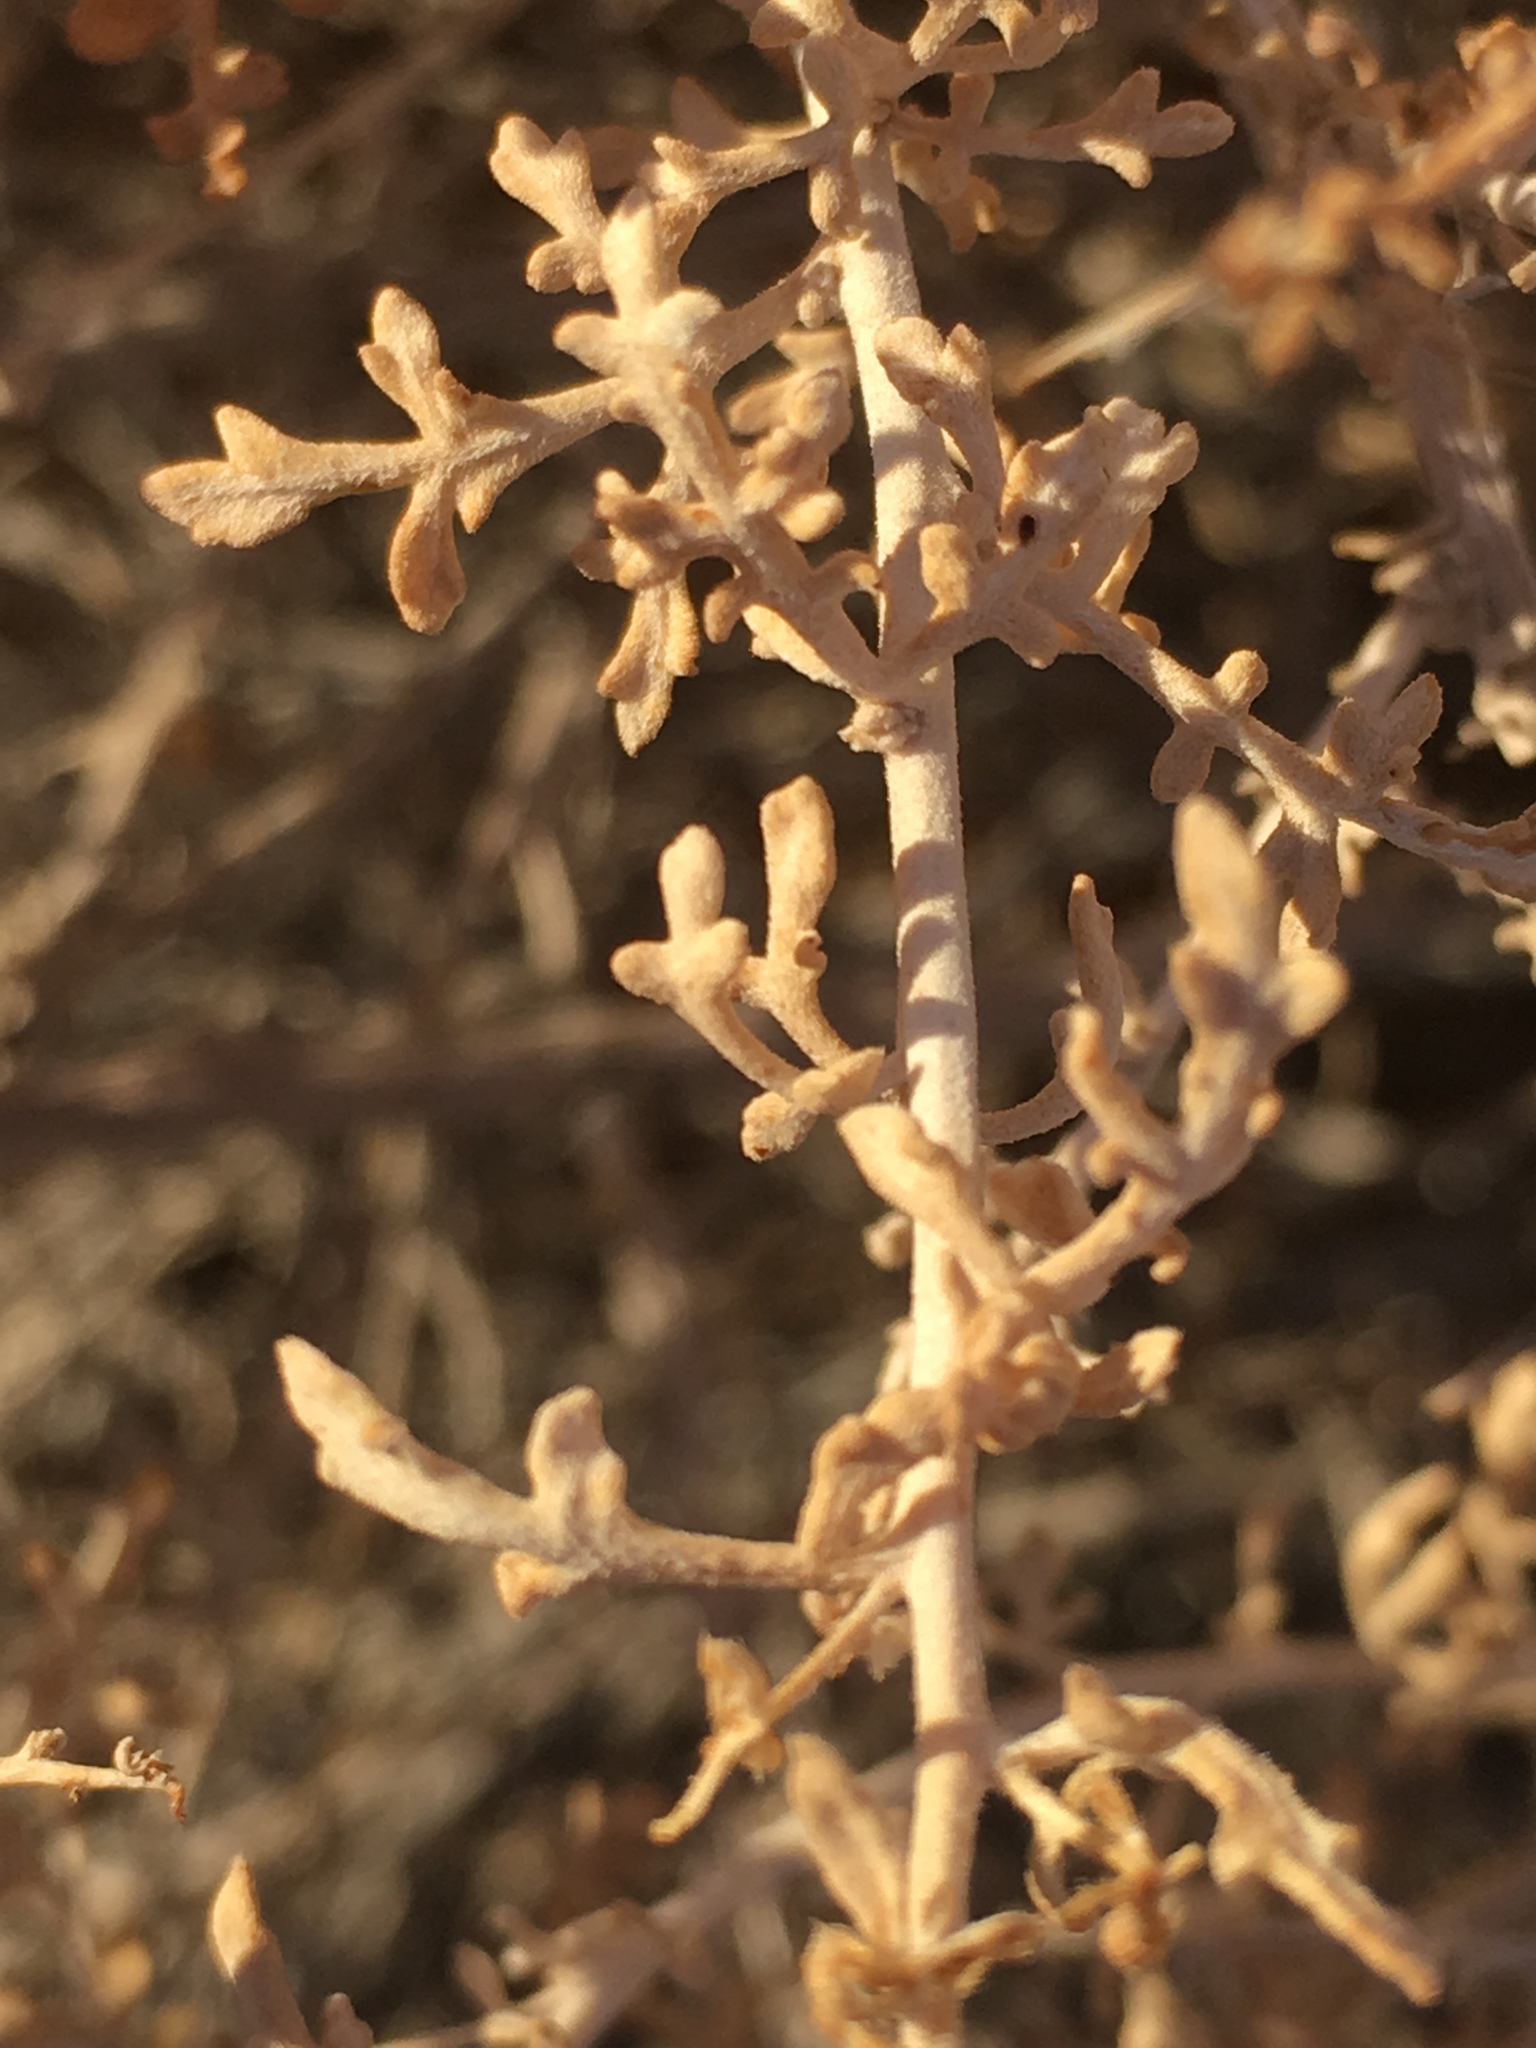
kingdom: Plantae
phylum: Tracheophyta
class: Magnoliopsida
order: Asterales
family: Asteraceae
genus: Ambrosia
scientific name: Ambrosia dumosa
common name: Bur-sage
